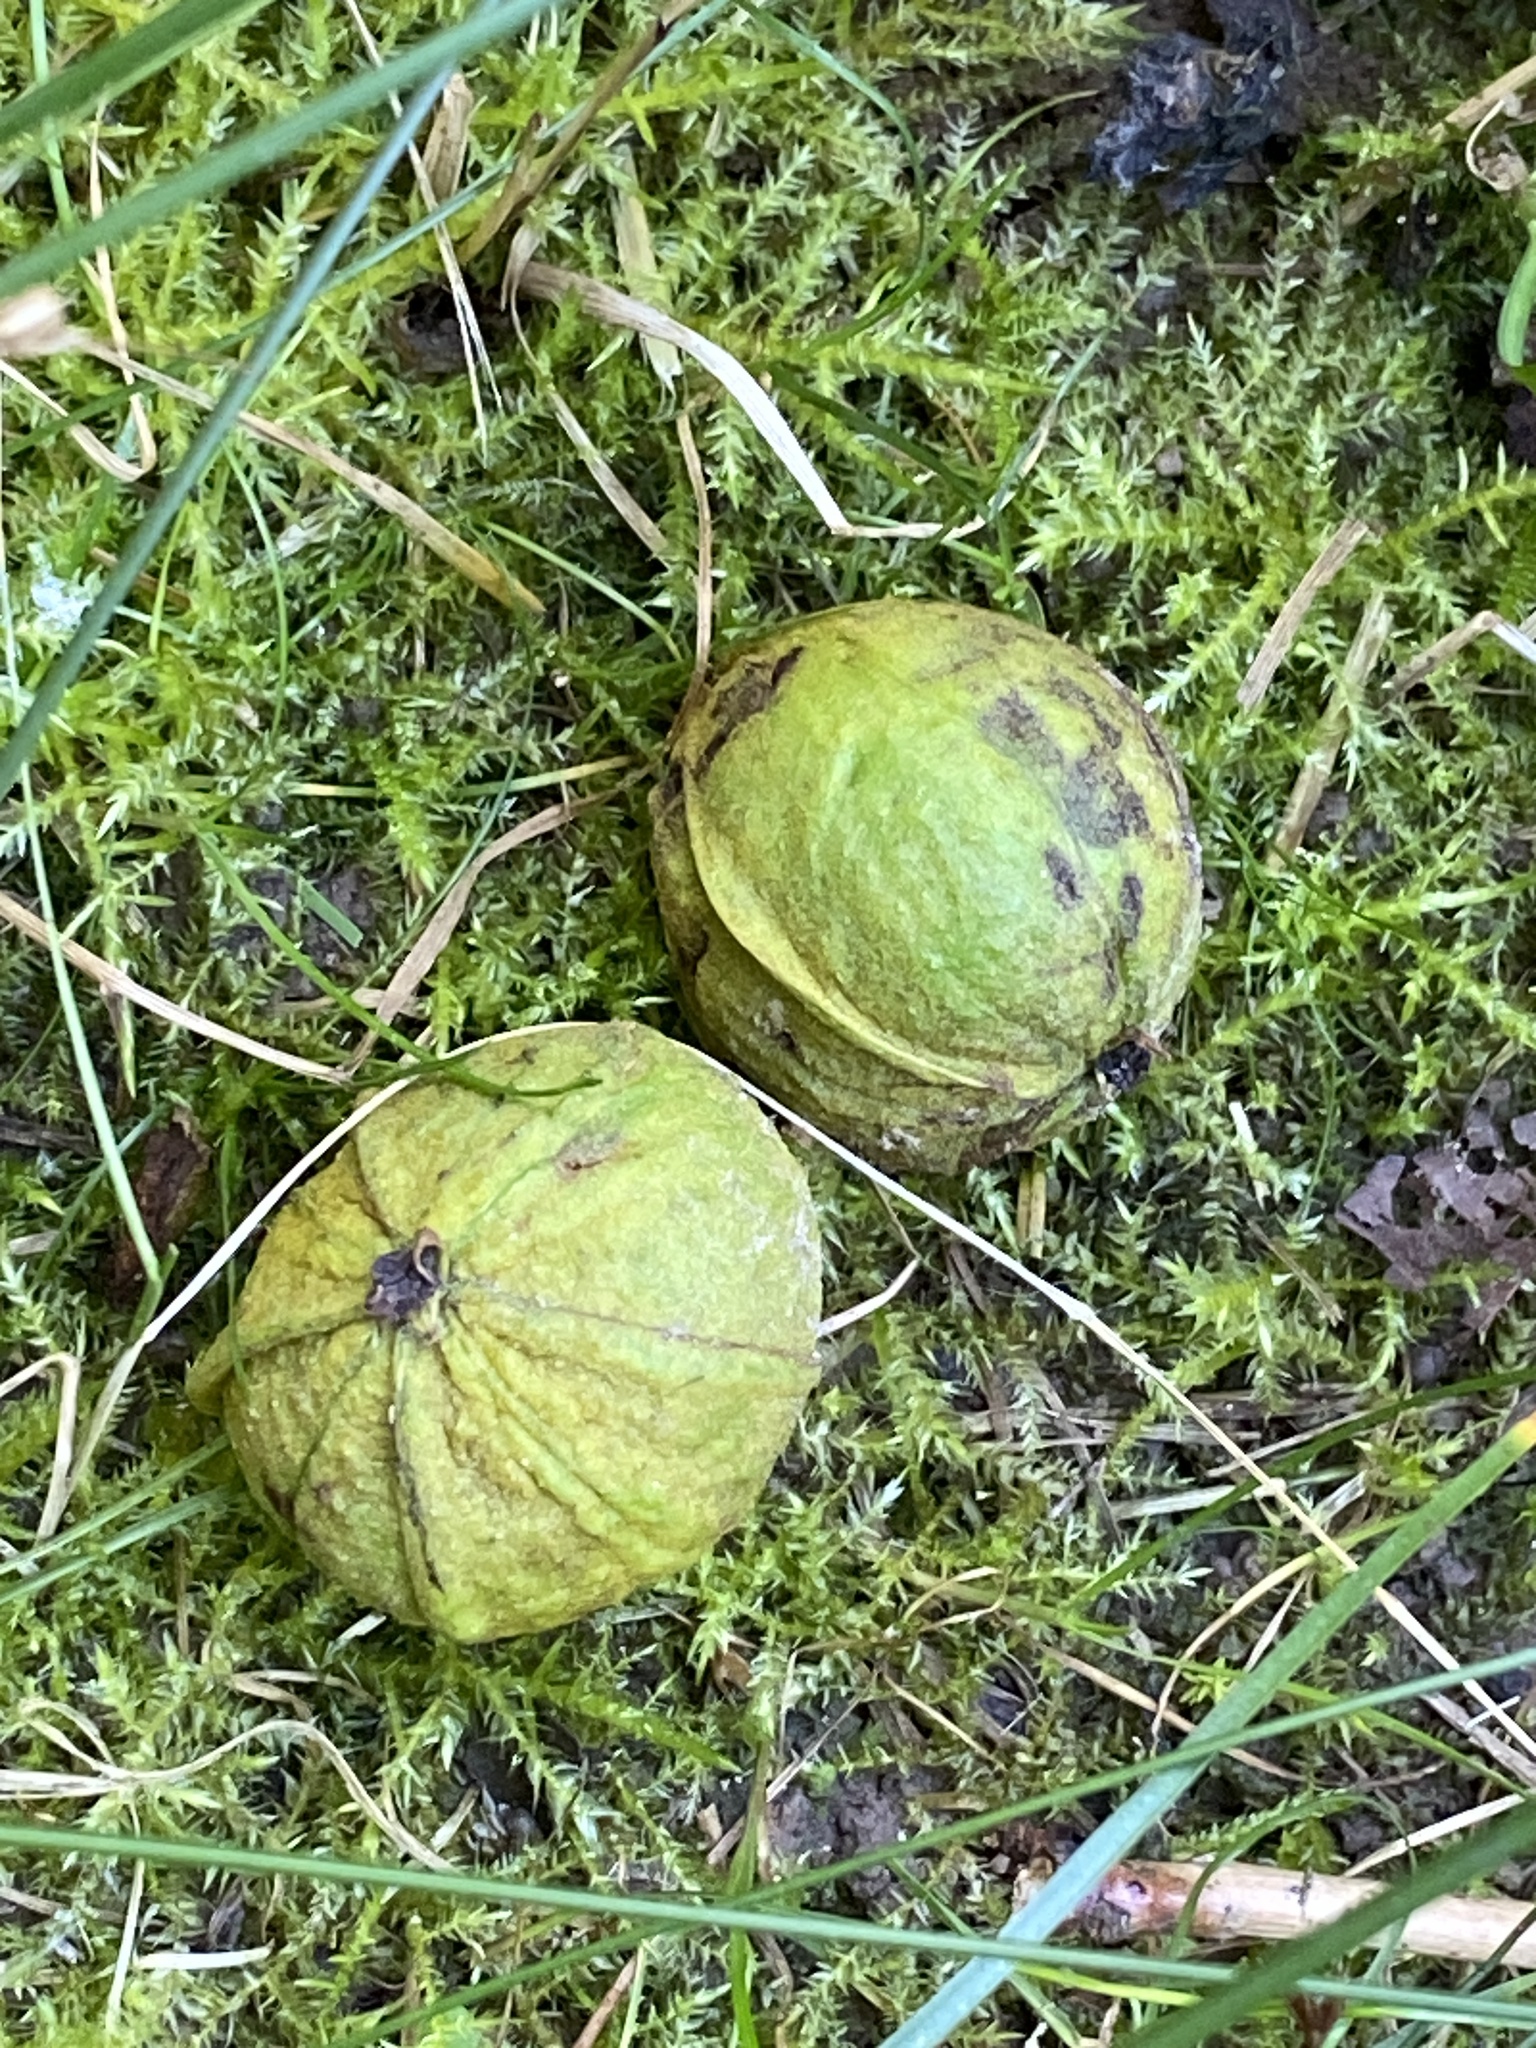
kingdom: Plantae
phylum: Tracheophyta
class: Magnoliopsida
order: Fagales
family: Juglandaceae
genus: Carya
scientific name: Carya cordiformis
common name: Bitternut hickory
